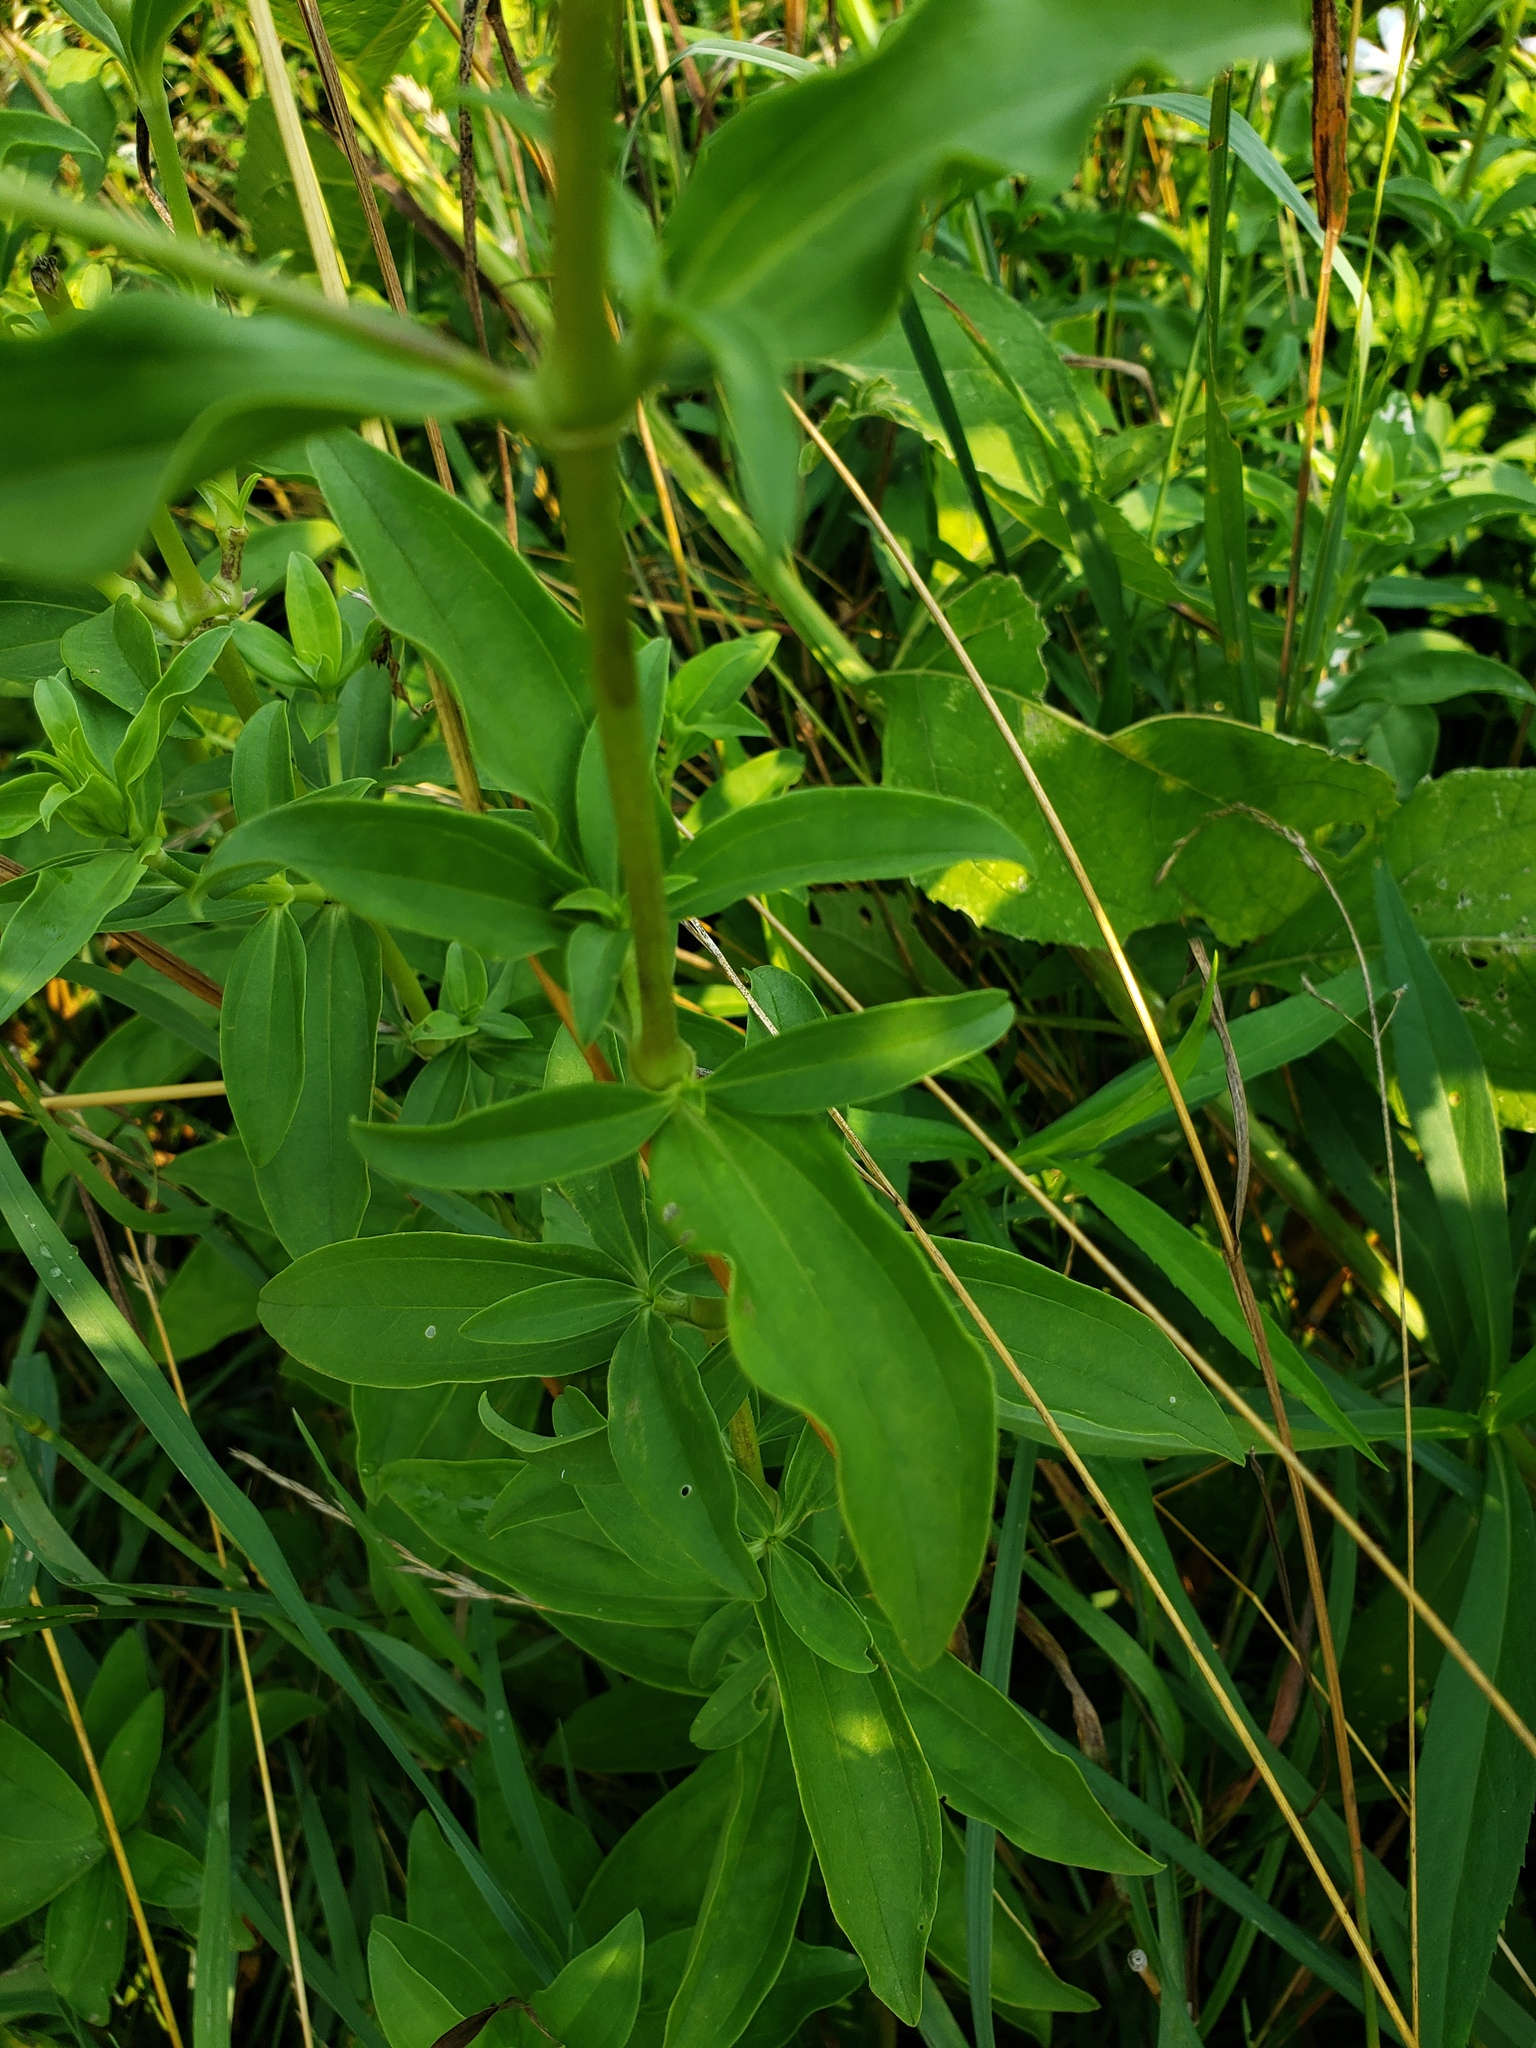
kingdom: Plantae
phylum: Tracheophyta
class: Magnoliopsida
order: Caryophyllales
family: Caryophyllaceae
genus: Saponaria
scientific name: Saponaria officinalis
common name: Soapwort
